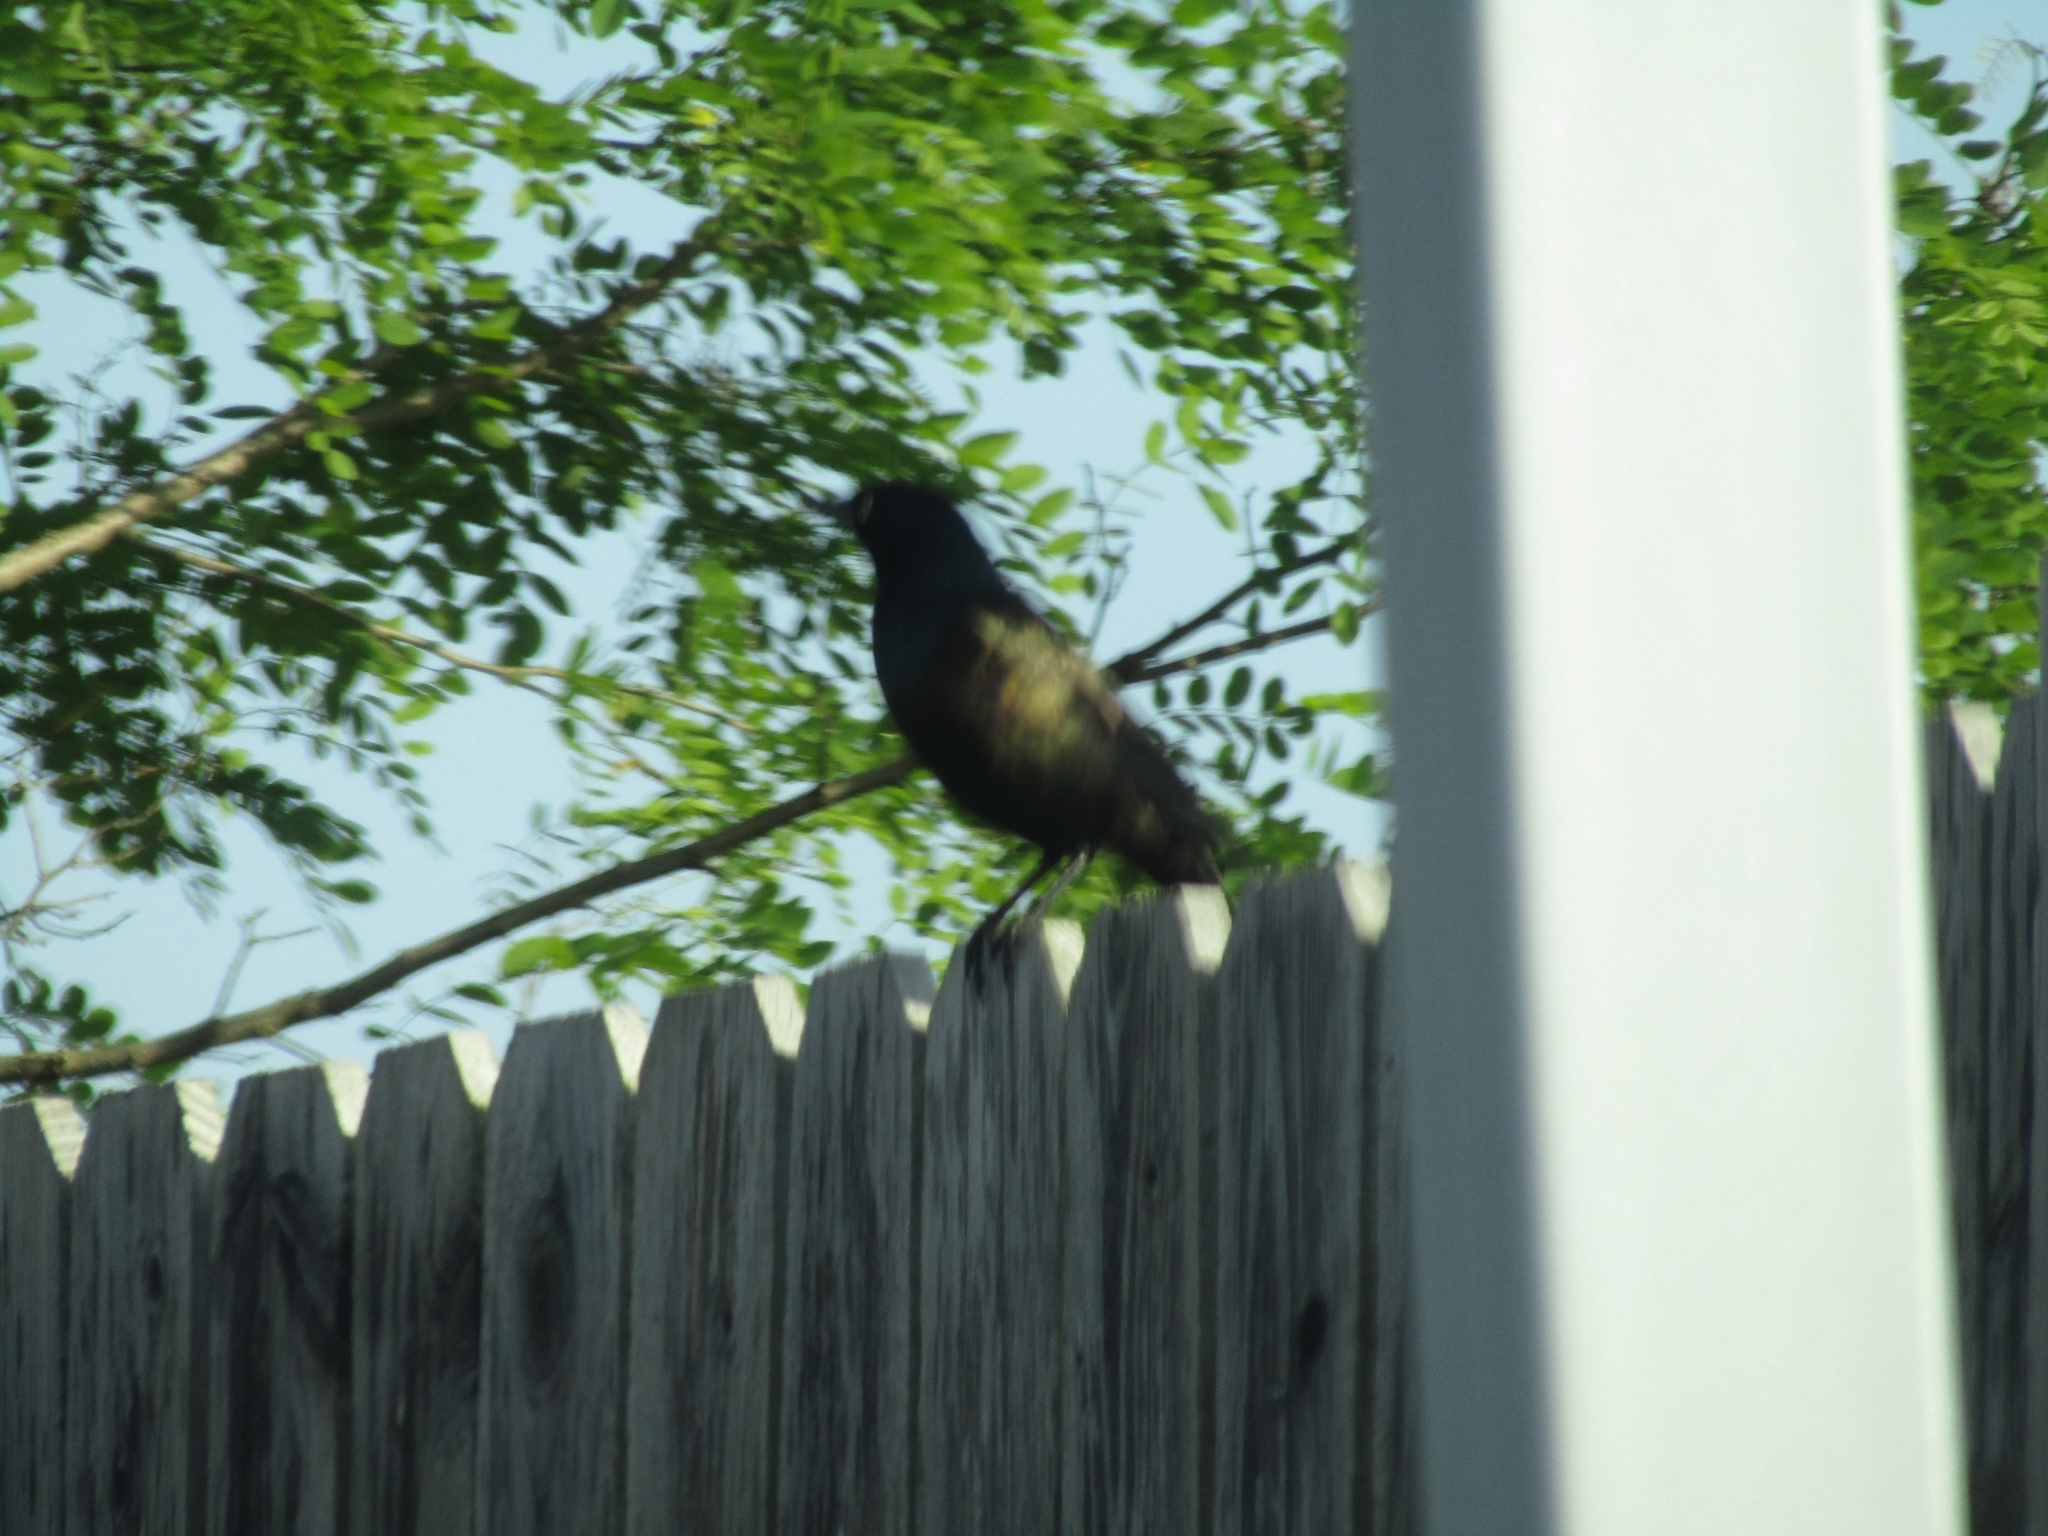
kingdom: Animalia
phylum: Chordata
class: Aves
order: Passeriformes
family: Icteridae
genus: Quiscalus
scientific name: Quiscalus quiscula
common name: Common grackle
